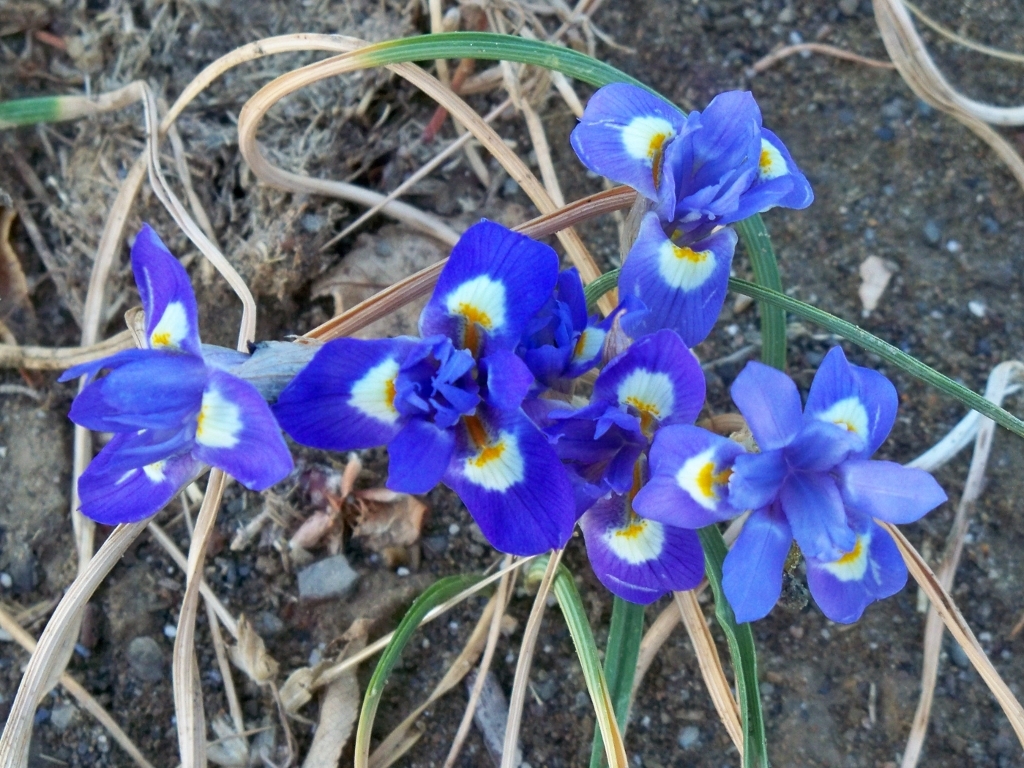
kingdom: Plantae
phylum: Tracheophyta
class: Liliopsida
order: Asparagales
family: Iridaceae
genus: Moraea
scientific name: Moraea sisyrinchium
